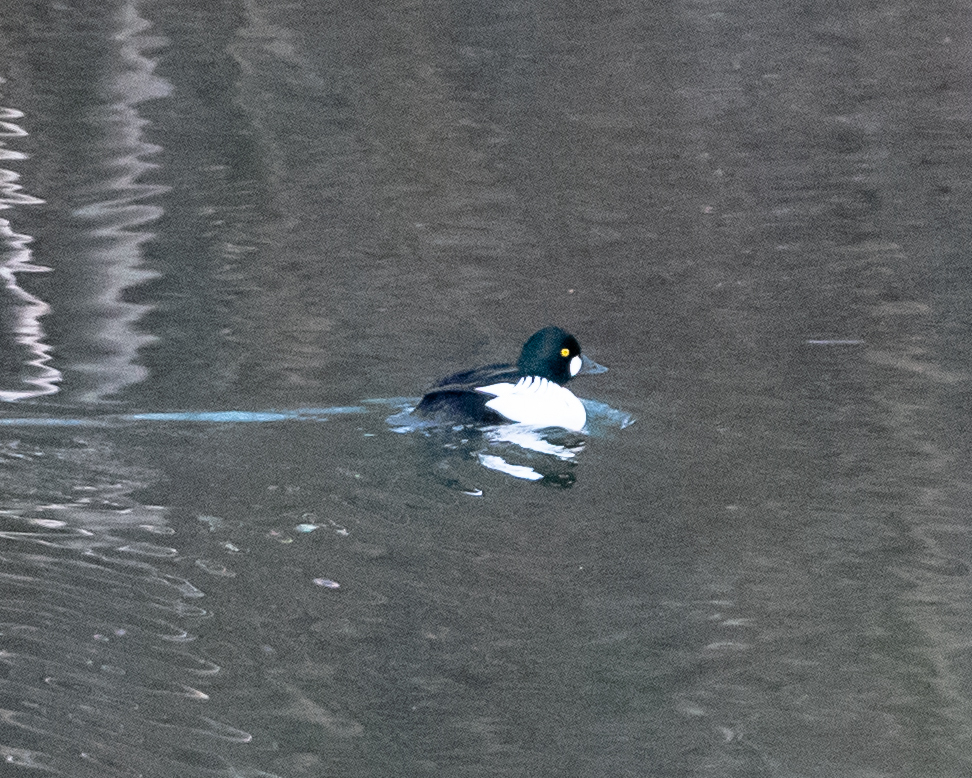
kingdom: Animalia
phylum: Chordata
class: Aves
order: Anseriformes
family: Anatidae
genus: Bucephala
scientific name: Bucephala clangula
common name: Common goldeneye
